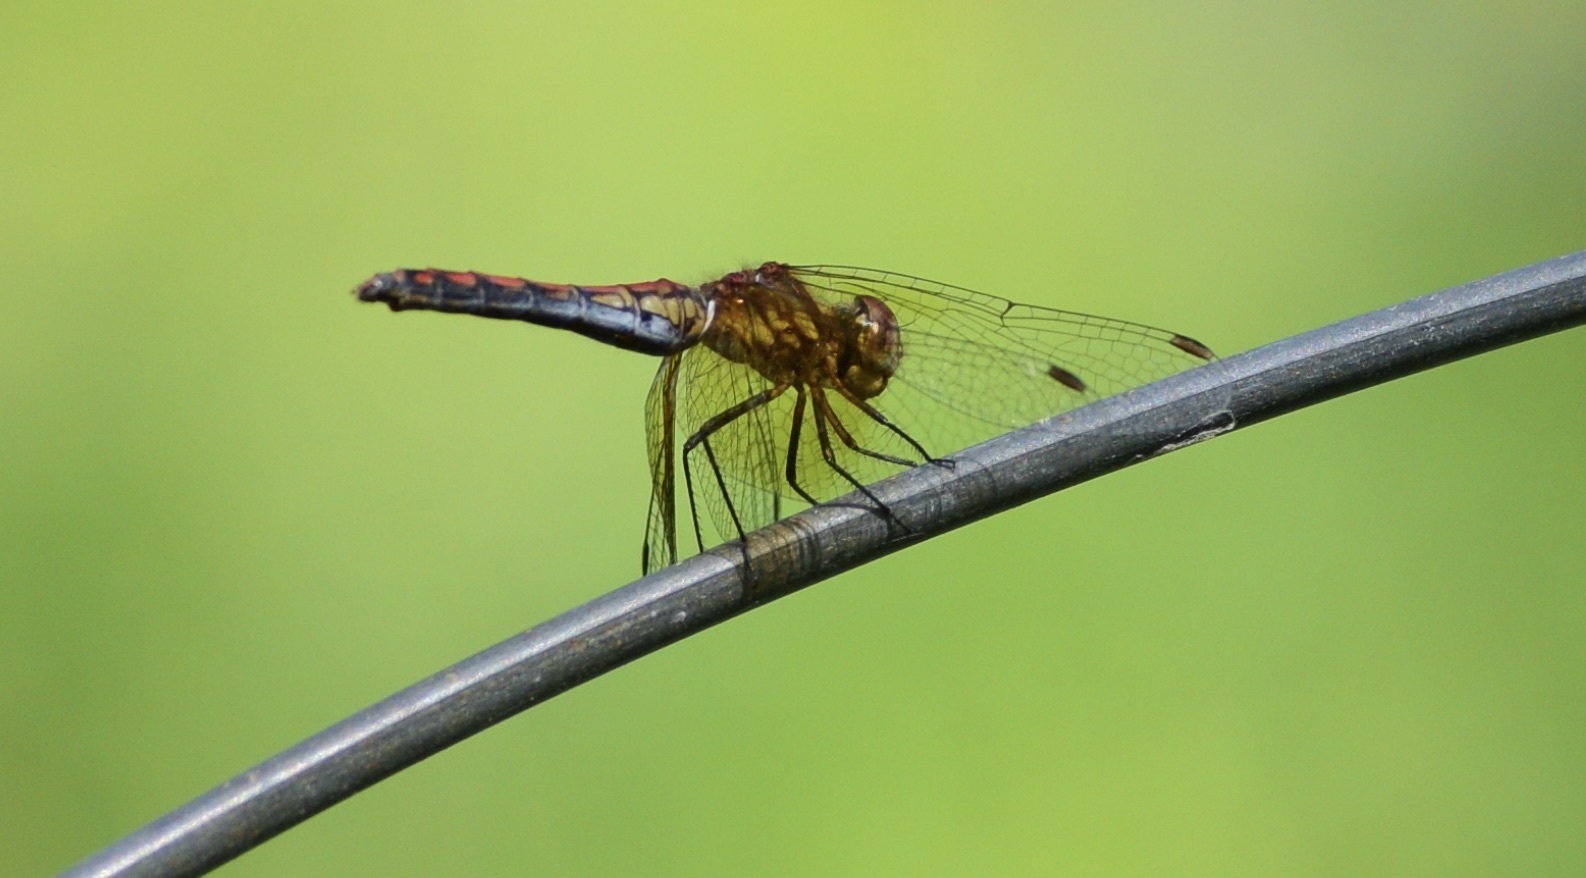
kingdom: Animalia
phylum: Arthropoda
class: Insecta
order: Odonata
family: Libellulidae
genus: Sympetrum
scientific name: Sympetrum semicinctum
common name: Band-winged meadowhawk
